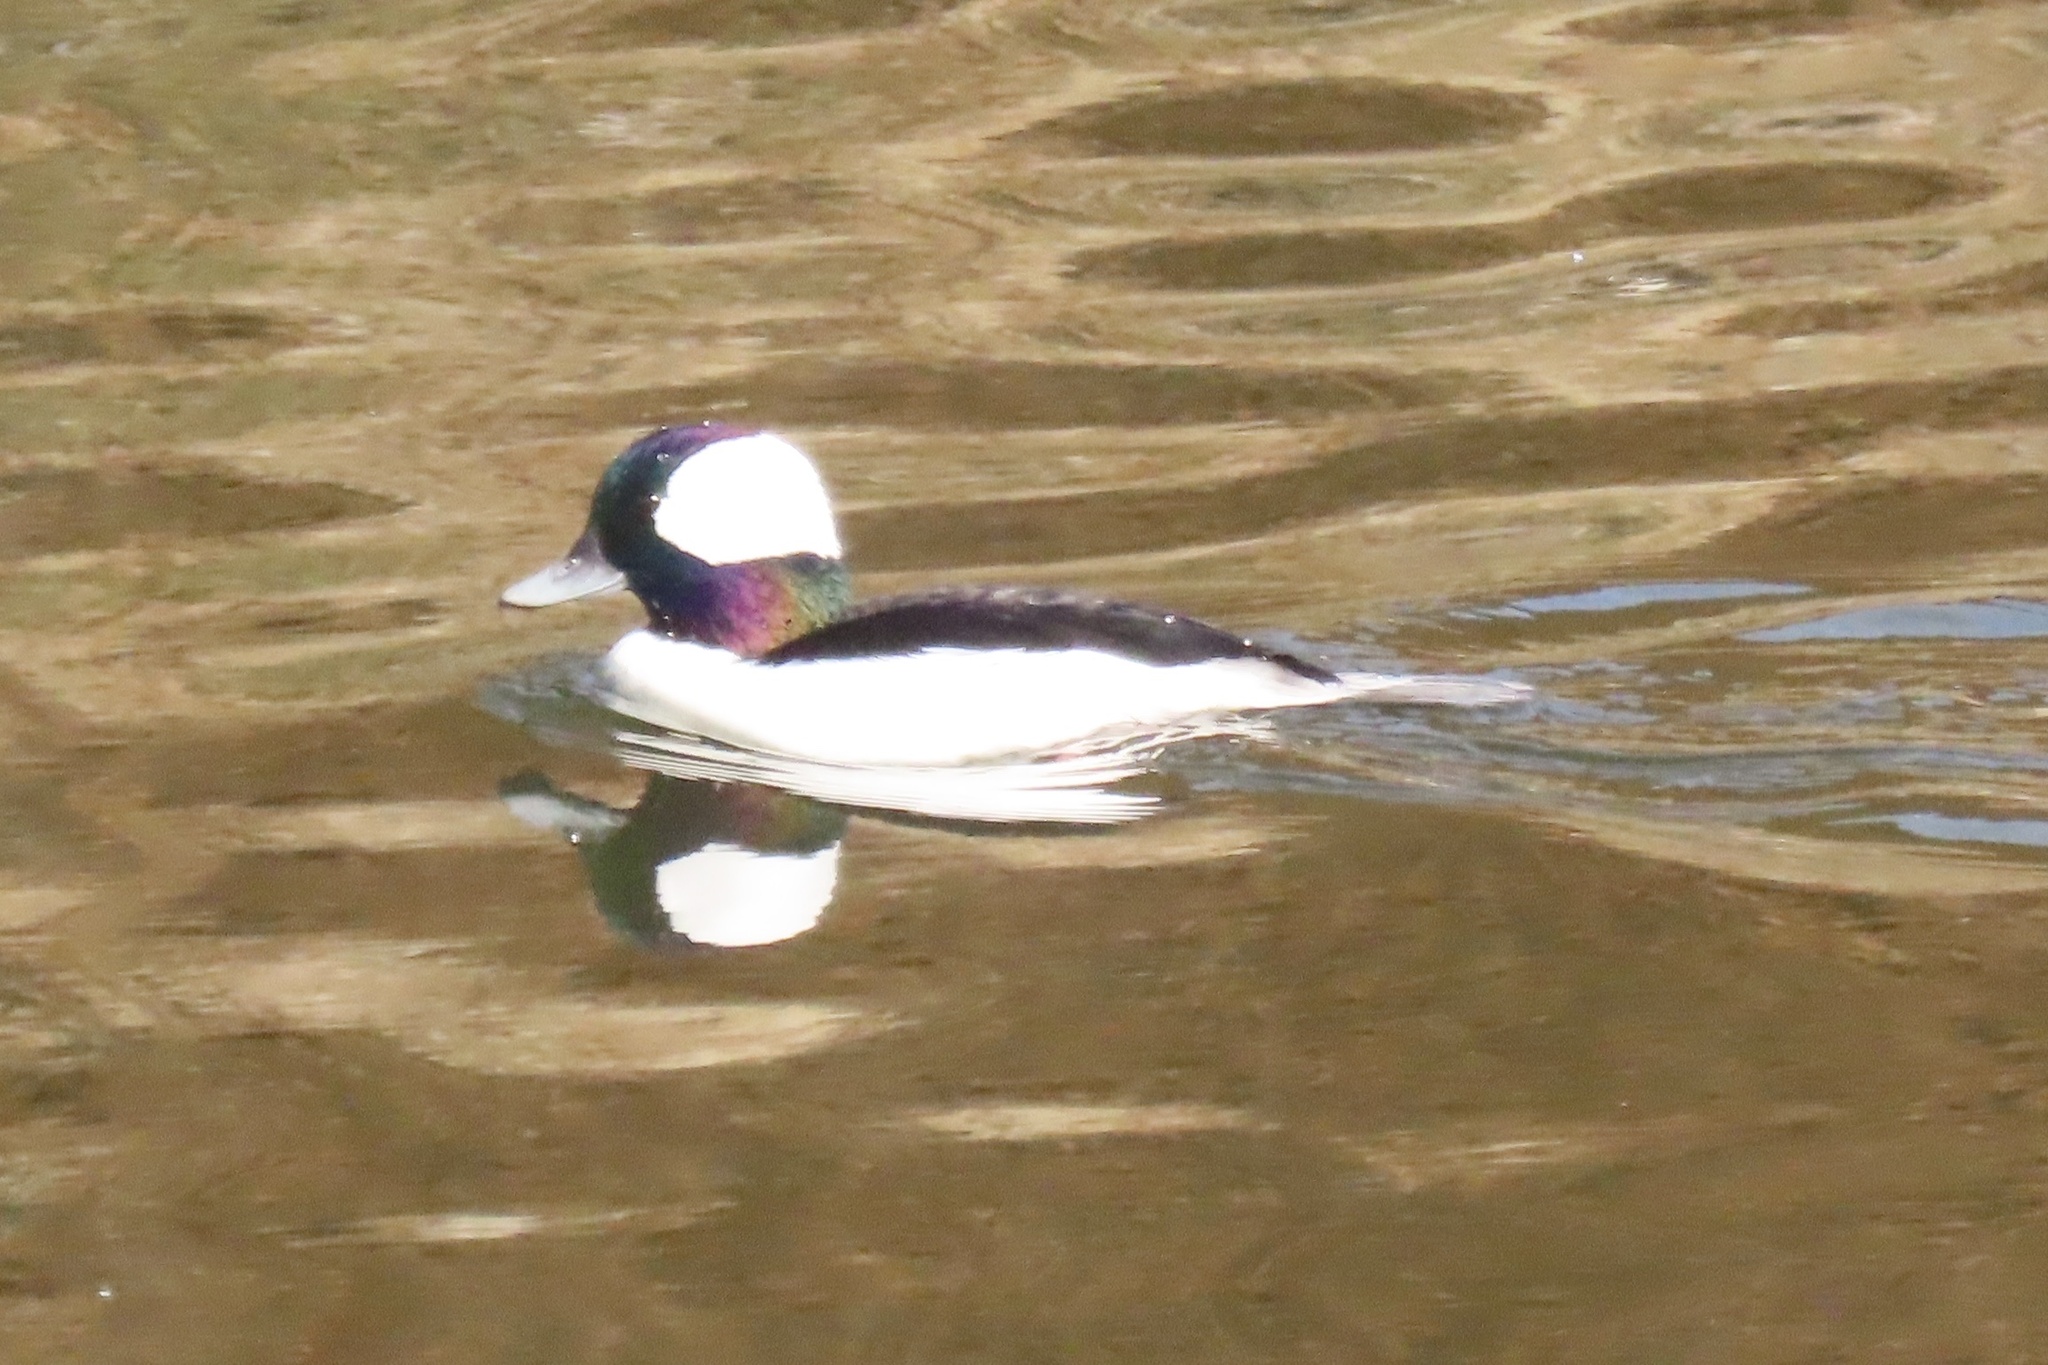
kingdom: Animalia
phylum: Chordata
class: Aves
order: Anseriformes
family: Anatidae
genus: Bucephala
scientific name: Bucephala albeola
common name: Bufflehead
